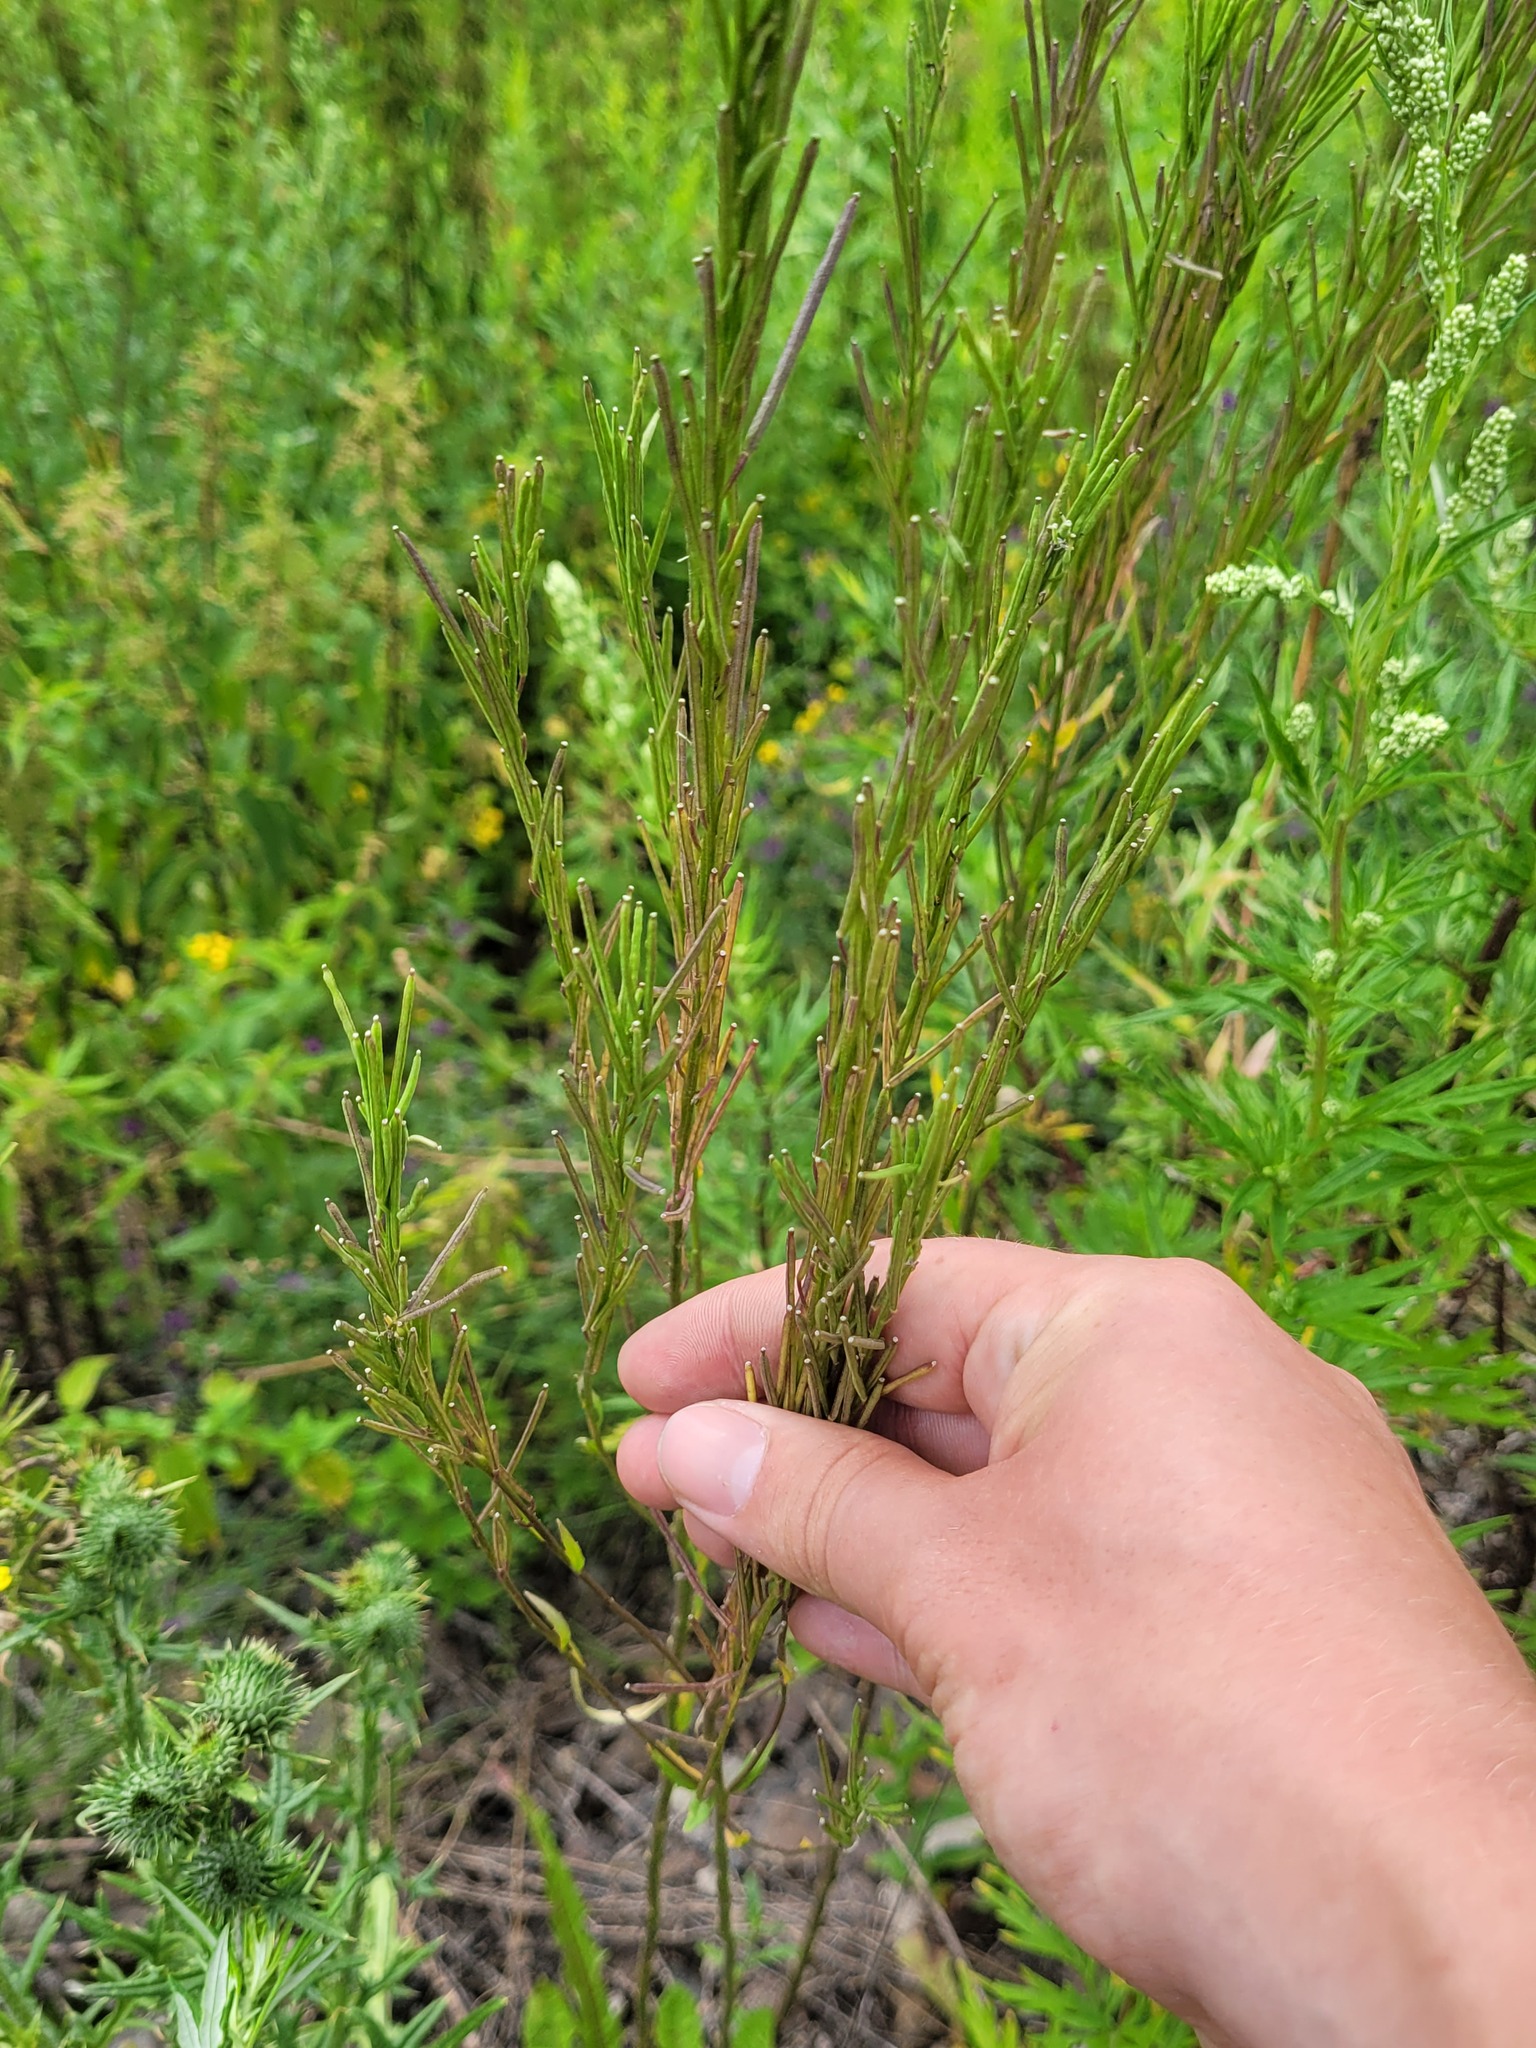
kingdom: Plantae
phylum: Tracheophyta
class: Magnoliopsida
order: Brassicales
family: Brassicaceae
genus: Erysimum
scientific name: Erysimum hieraciifolium
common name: European wallflower
